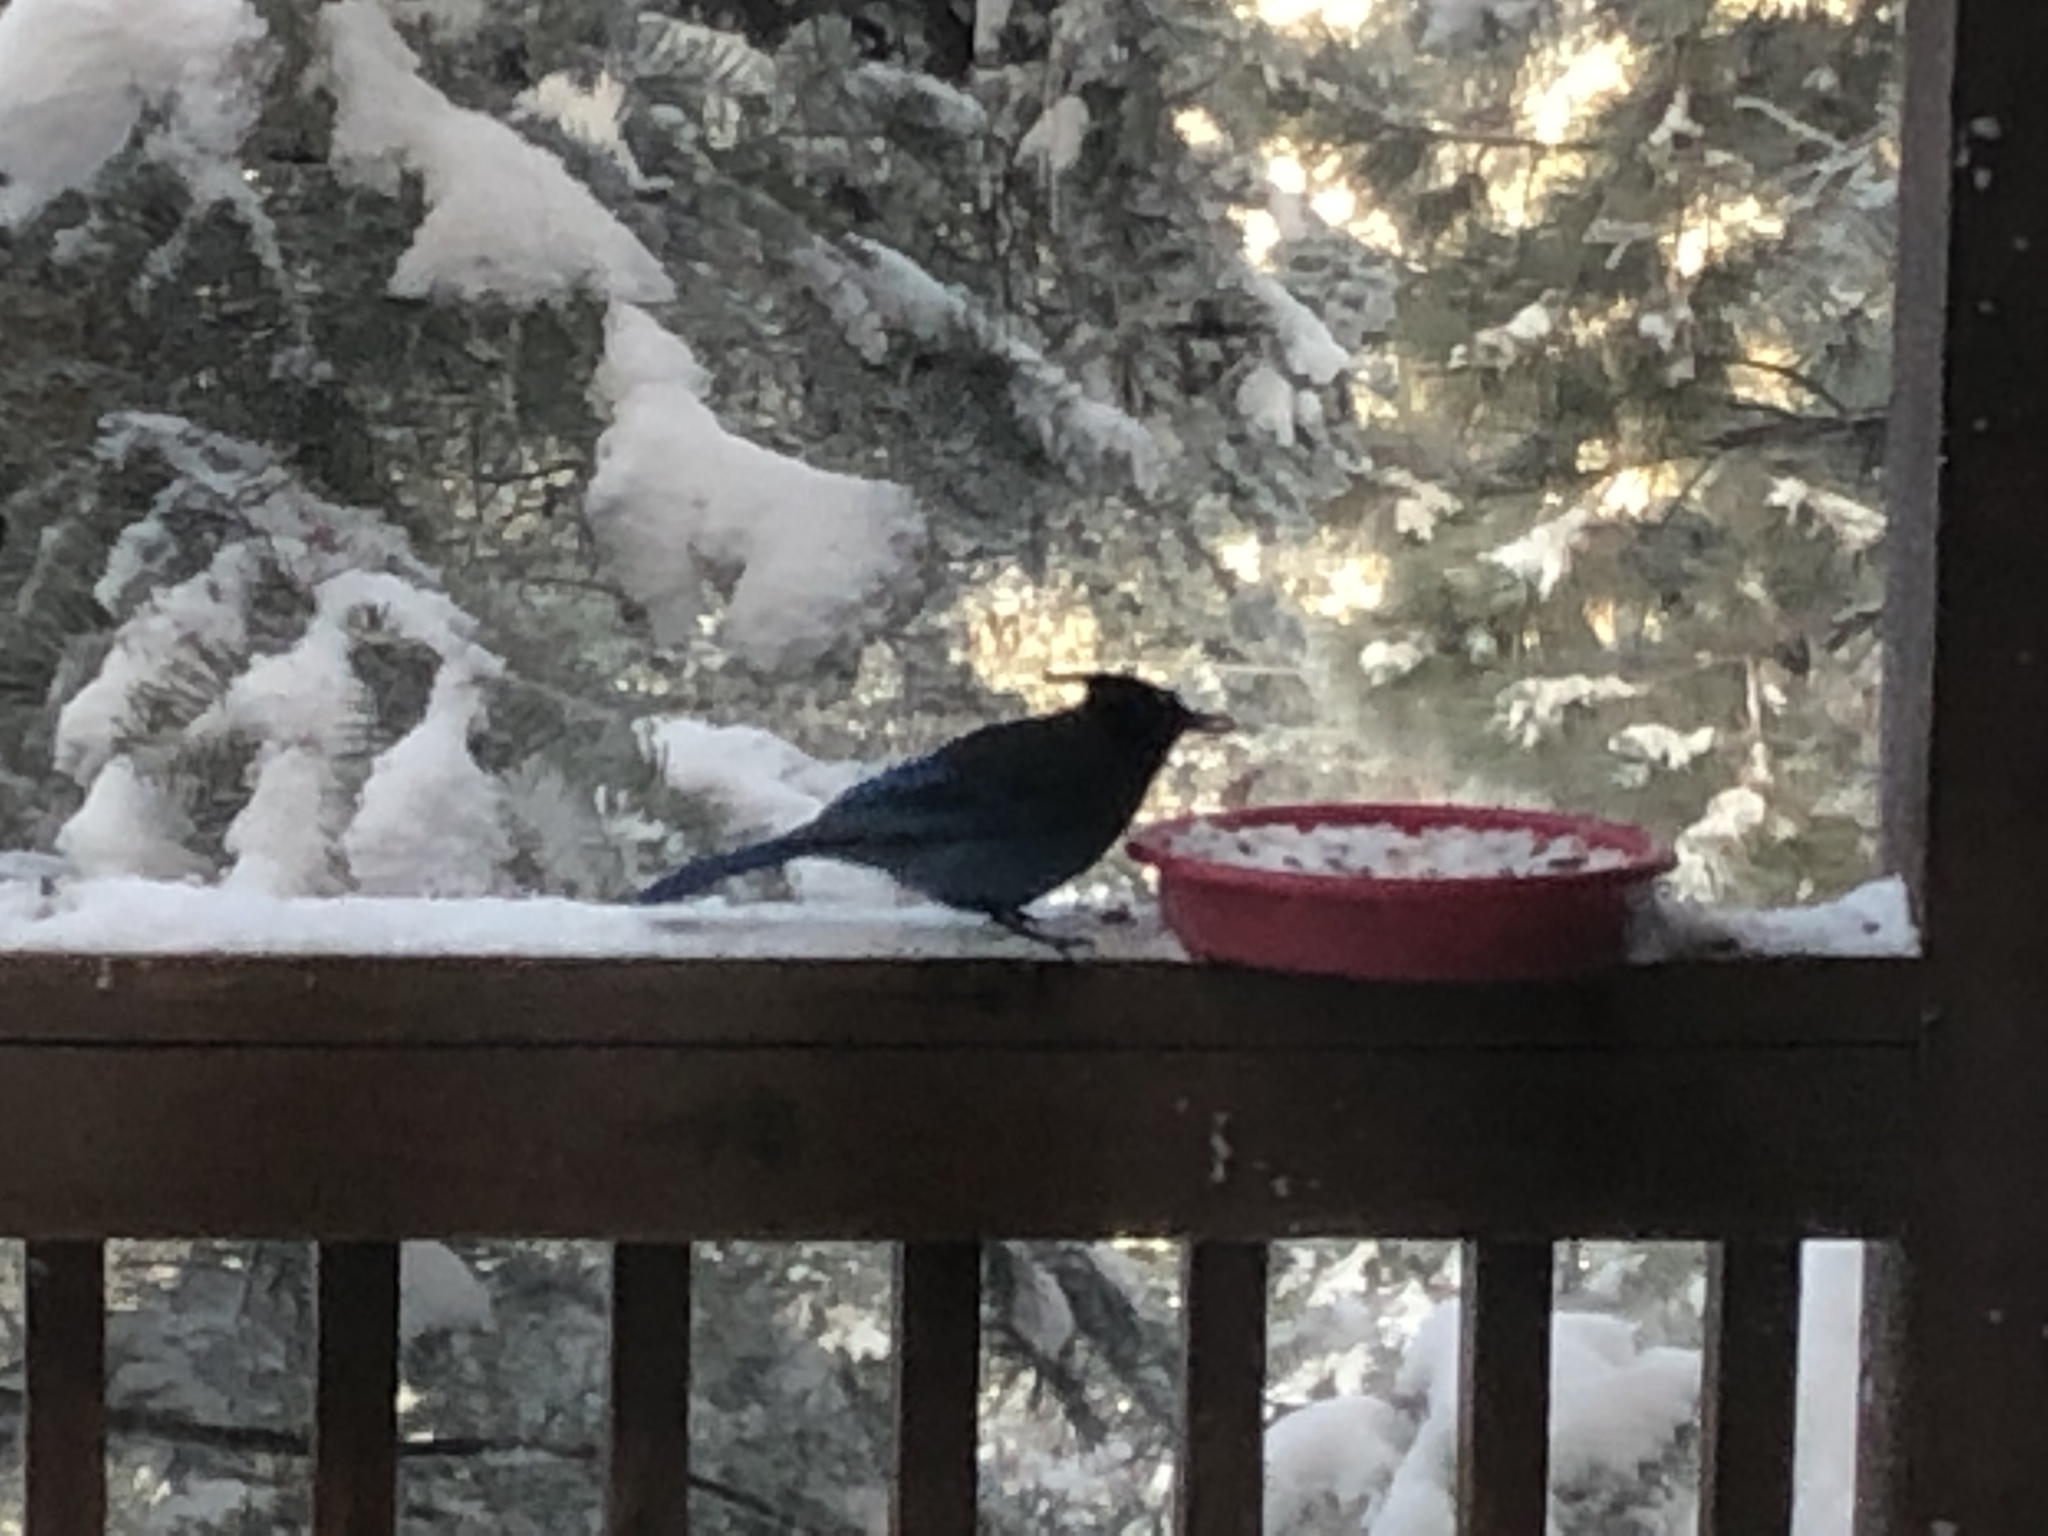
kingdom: Animalia
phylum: Chordata
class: Aves
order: Passeriformes
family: Corvidae
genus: Cyanocitta
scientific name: Cyanocitta stelleri
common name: Steller's jay
